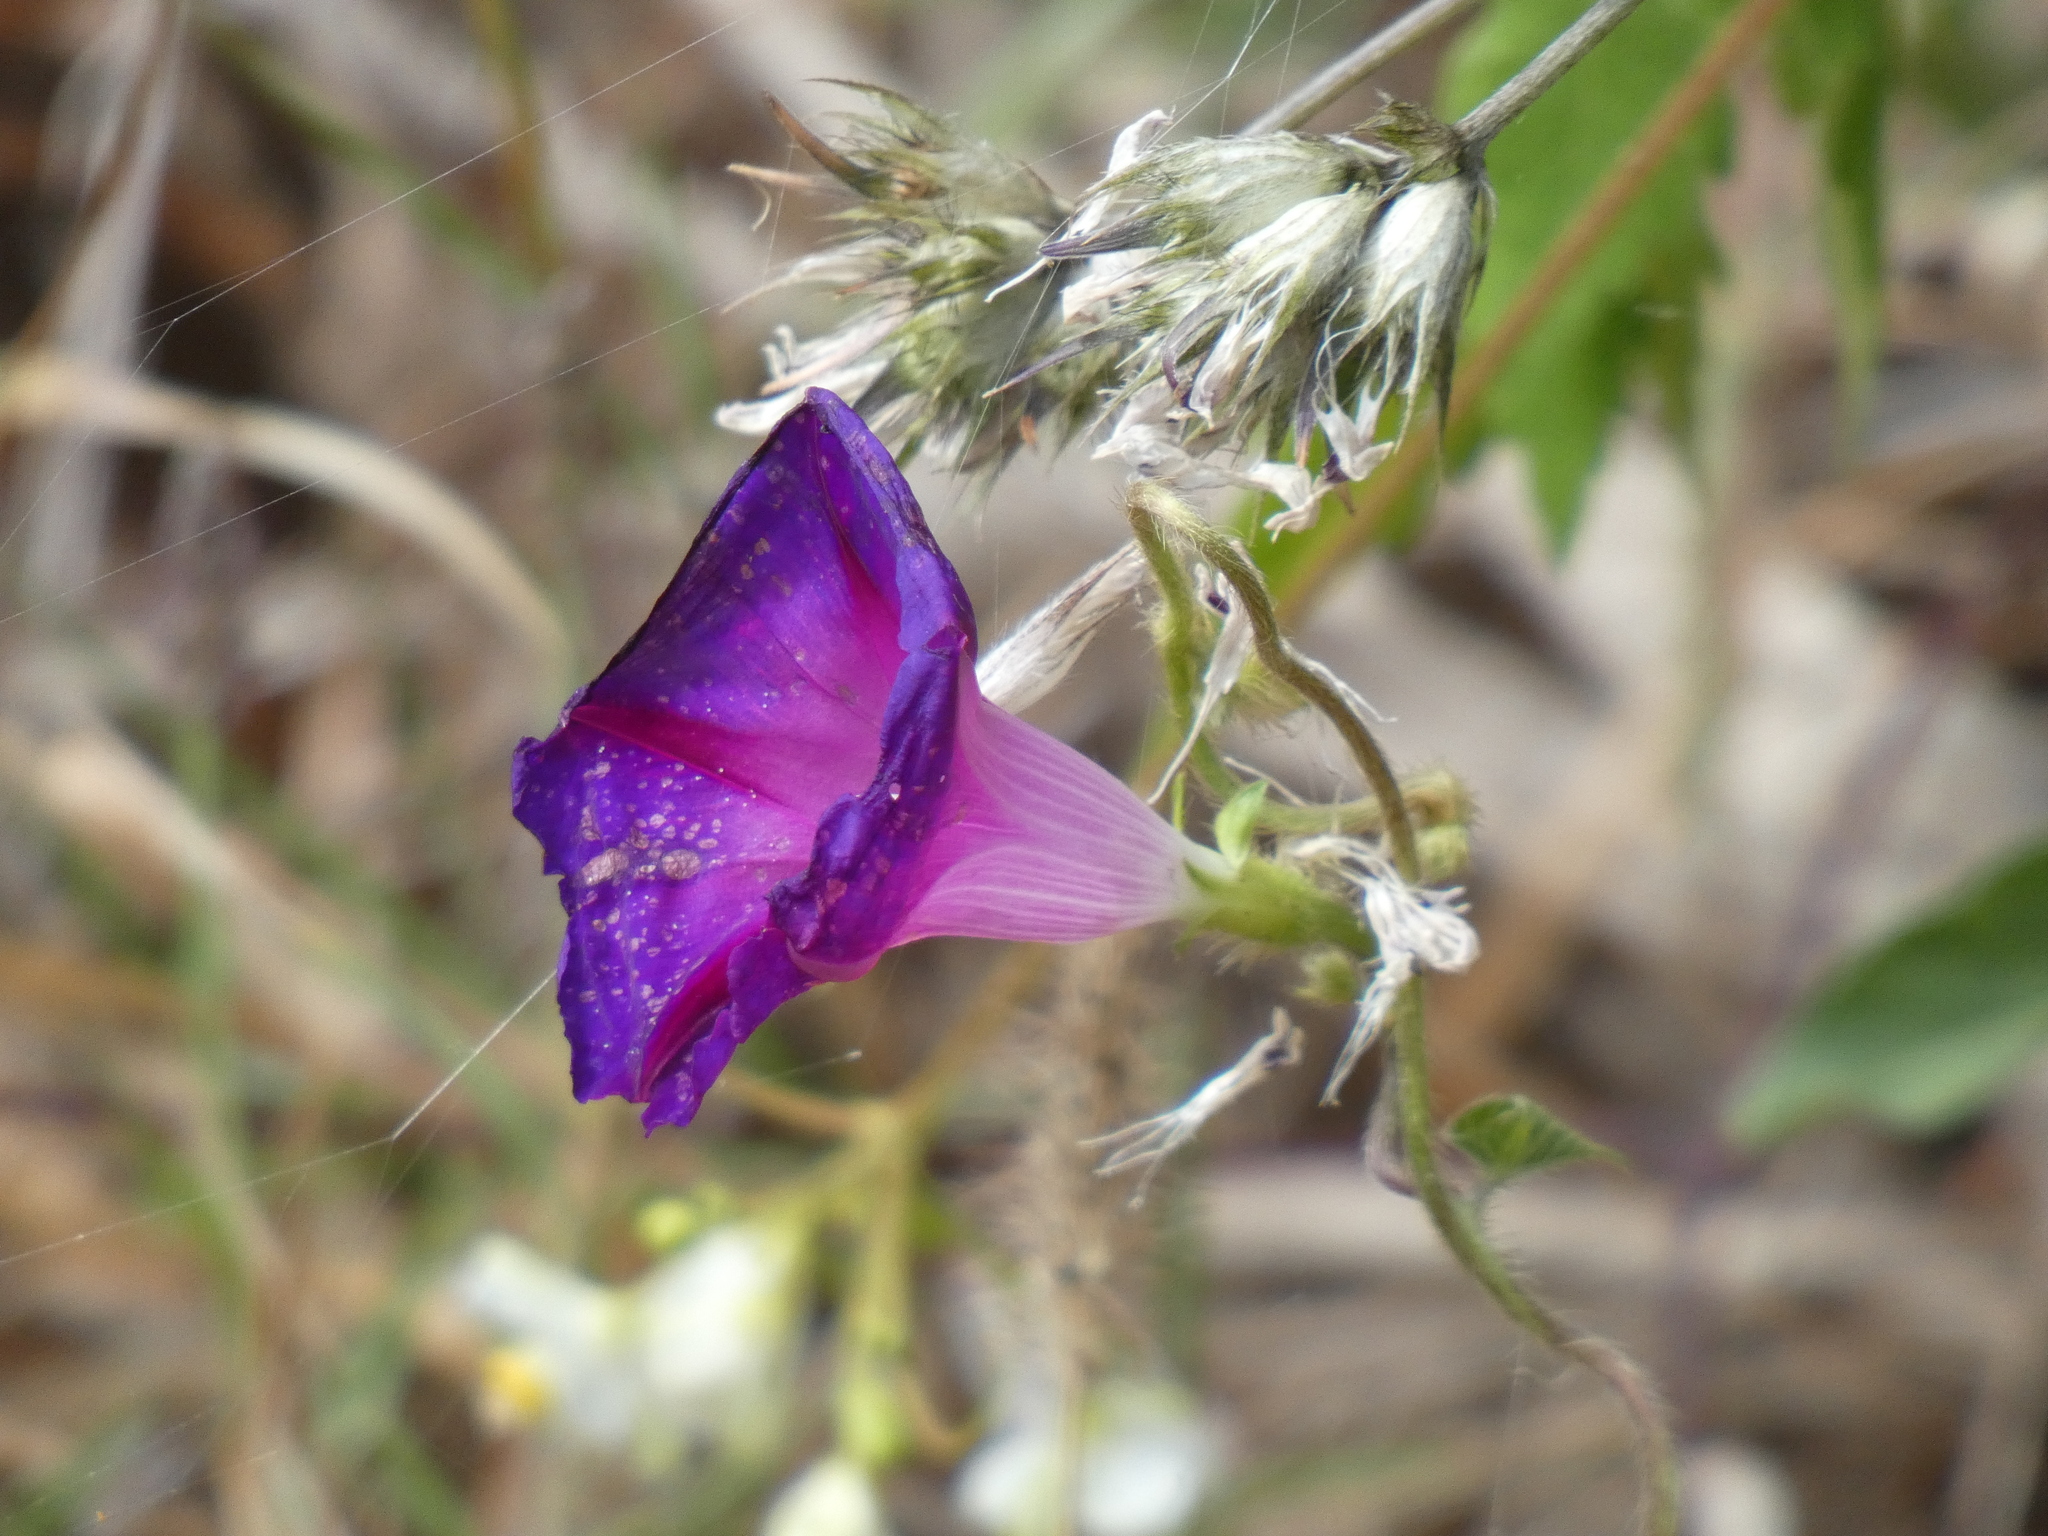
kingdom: Plantae
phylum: Tracheophyta
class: Magnoliopsida
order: Solanales
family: Convolvulaceae
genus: Ipomoea
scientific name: Ipomoea purpurea
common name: Common morning-glory
